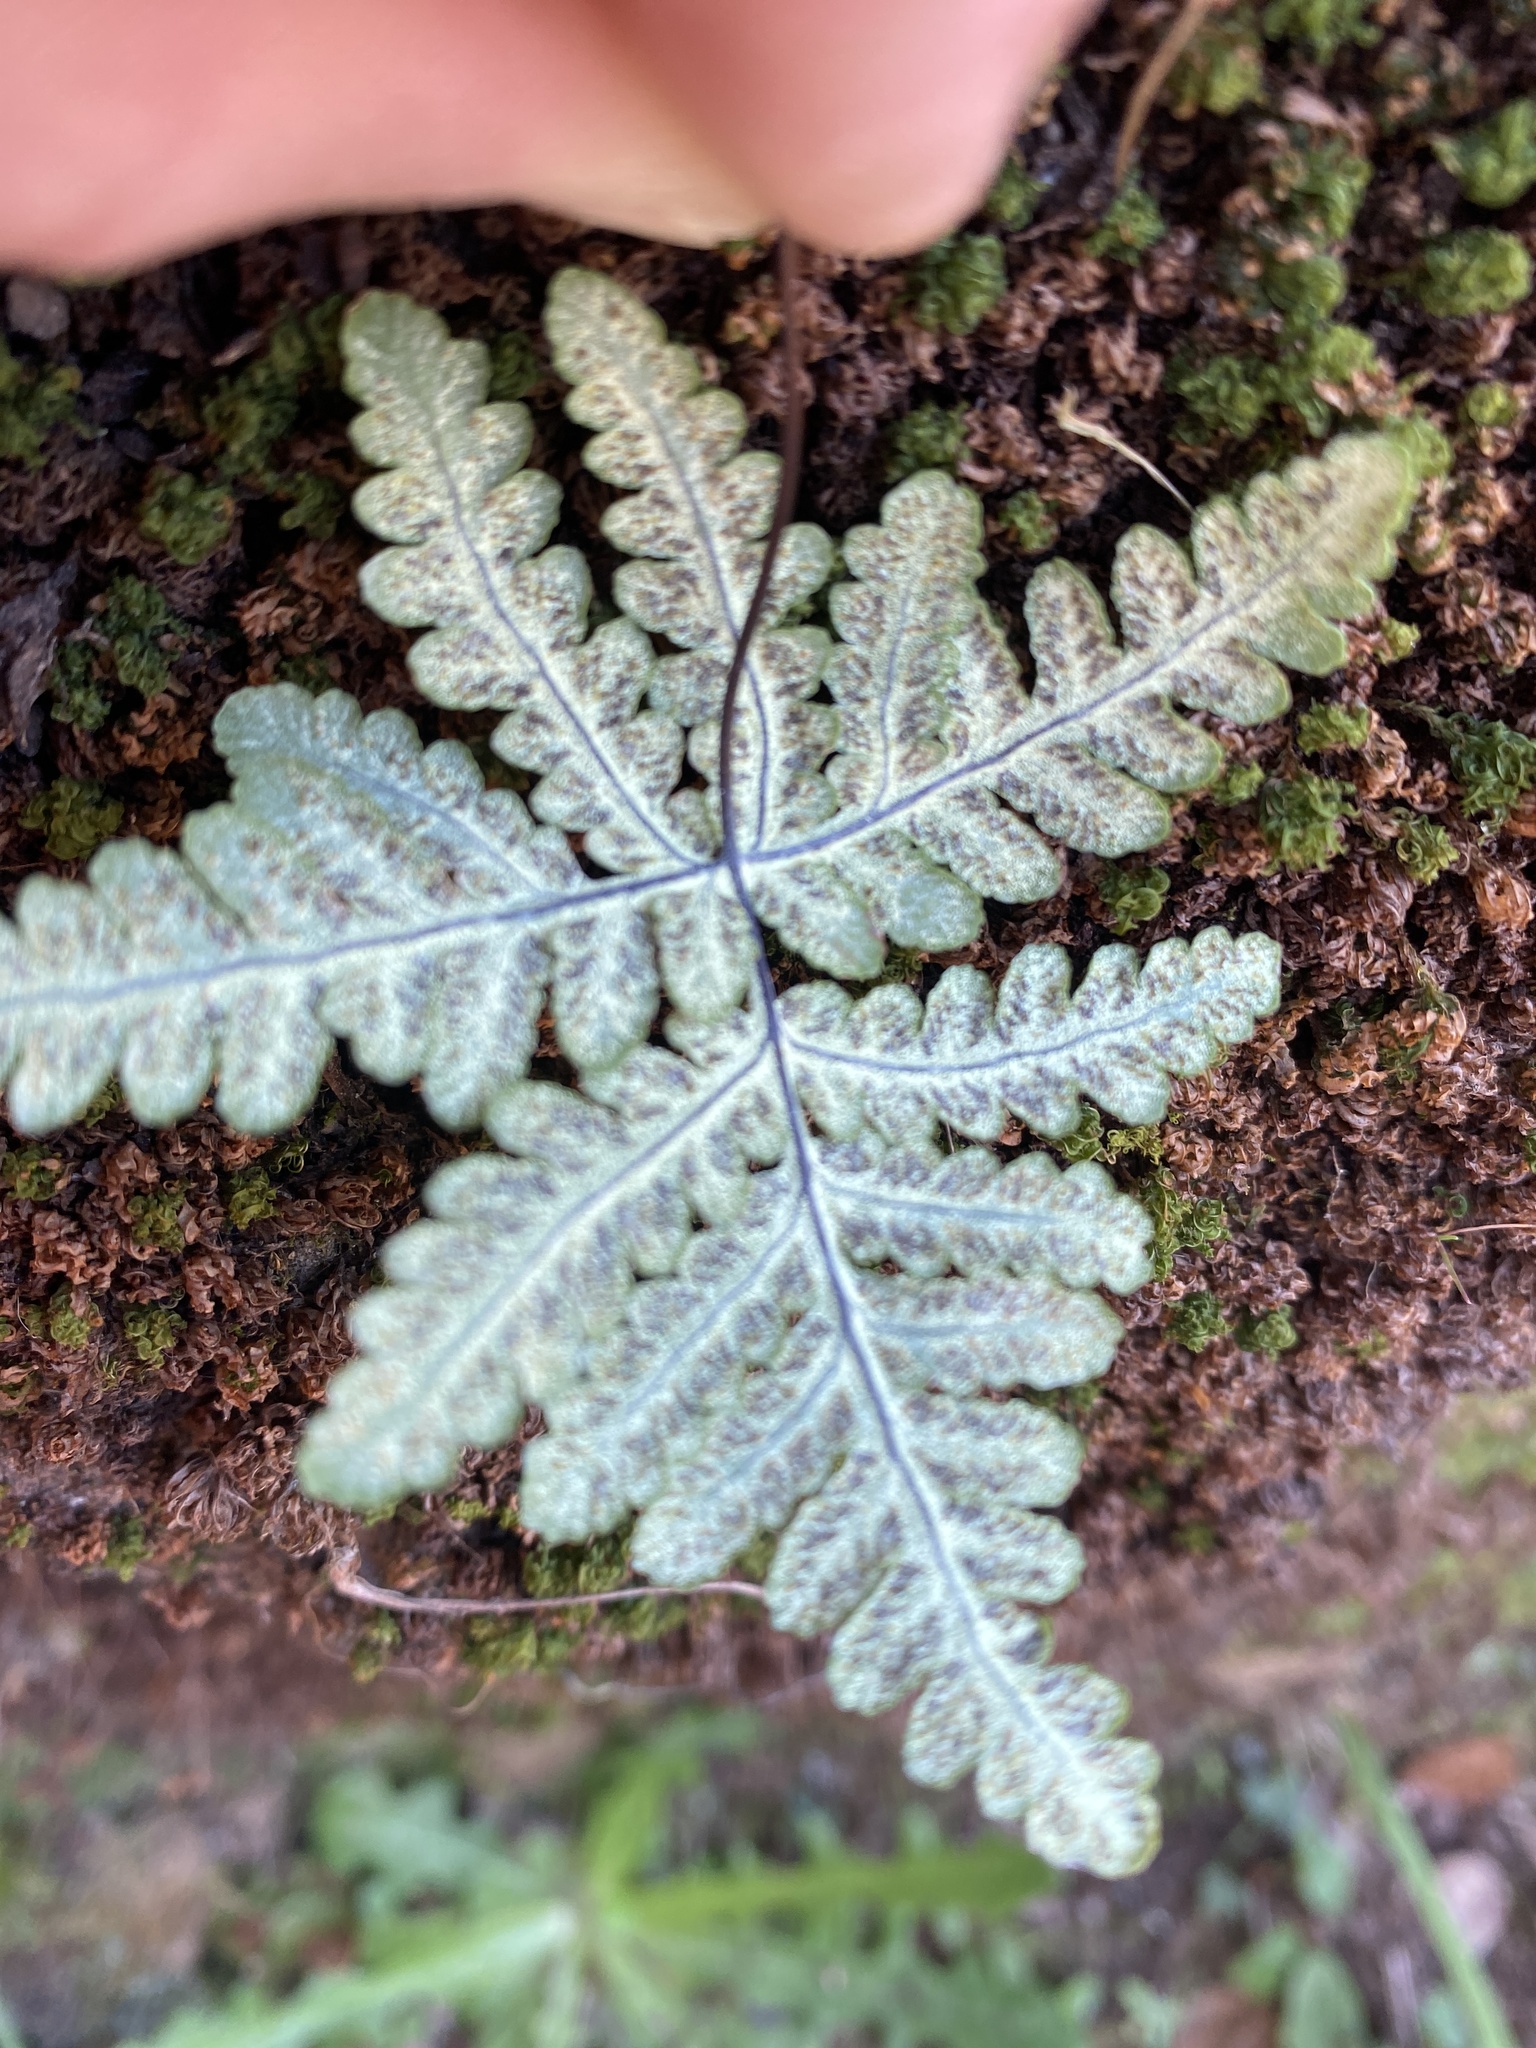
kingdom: Plantae
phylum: Tracheophyta
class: Polypodiopsida
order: Polypodiales
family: Pteridaceae
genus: Pentagramma
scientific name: Pentagramma triangularis
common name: Gold fern
